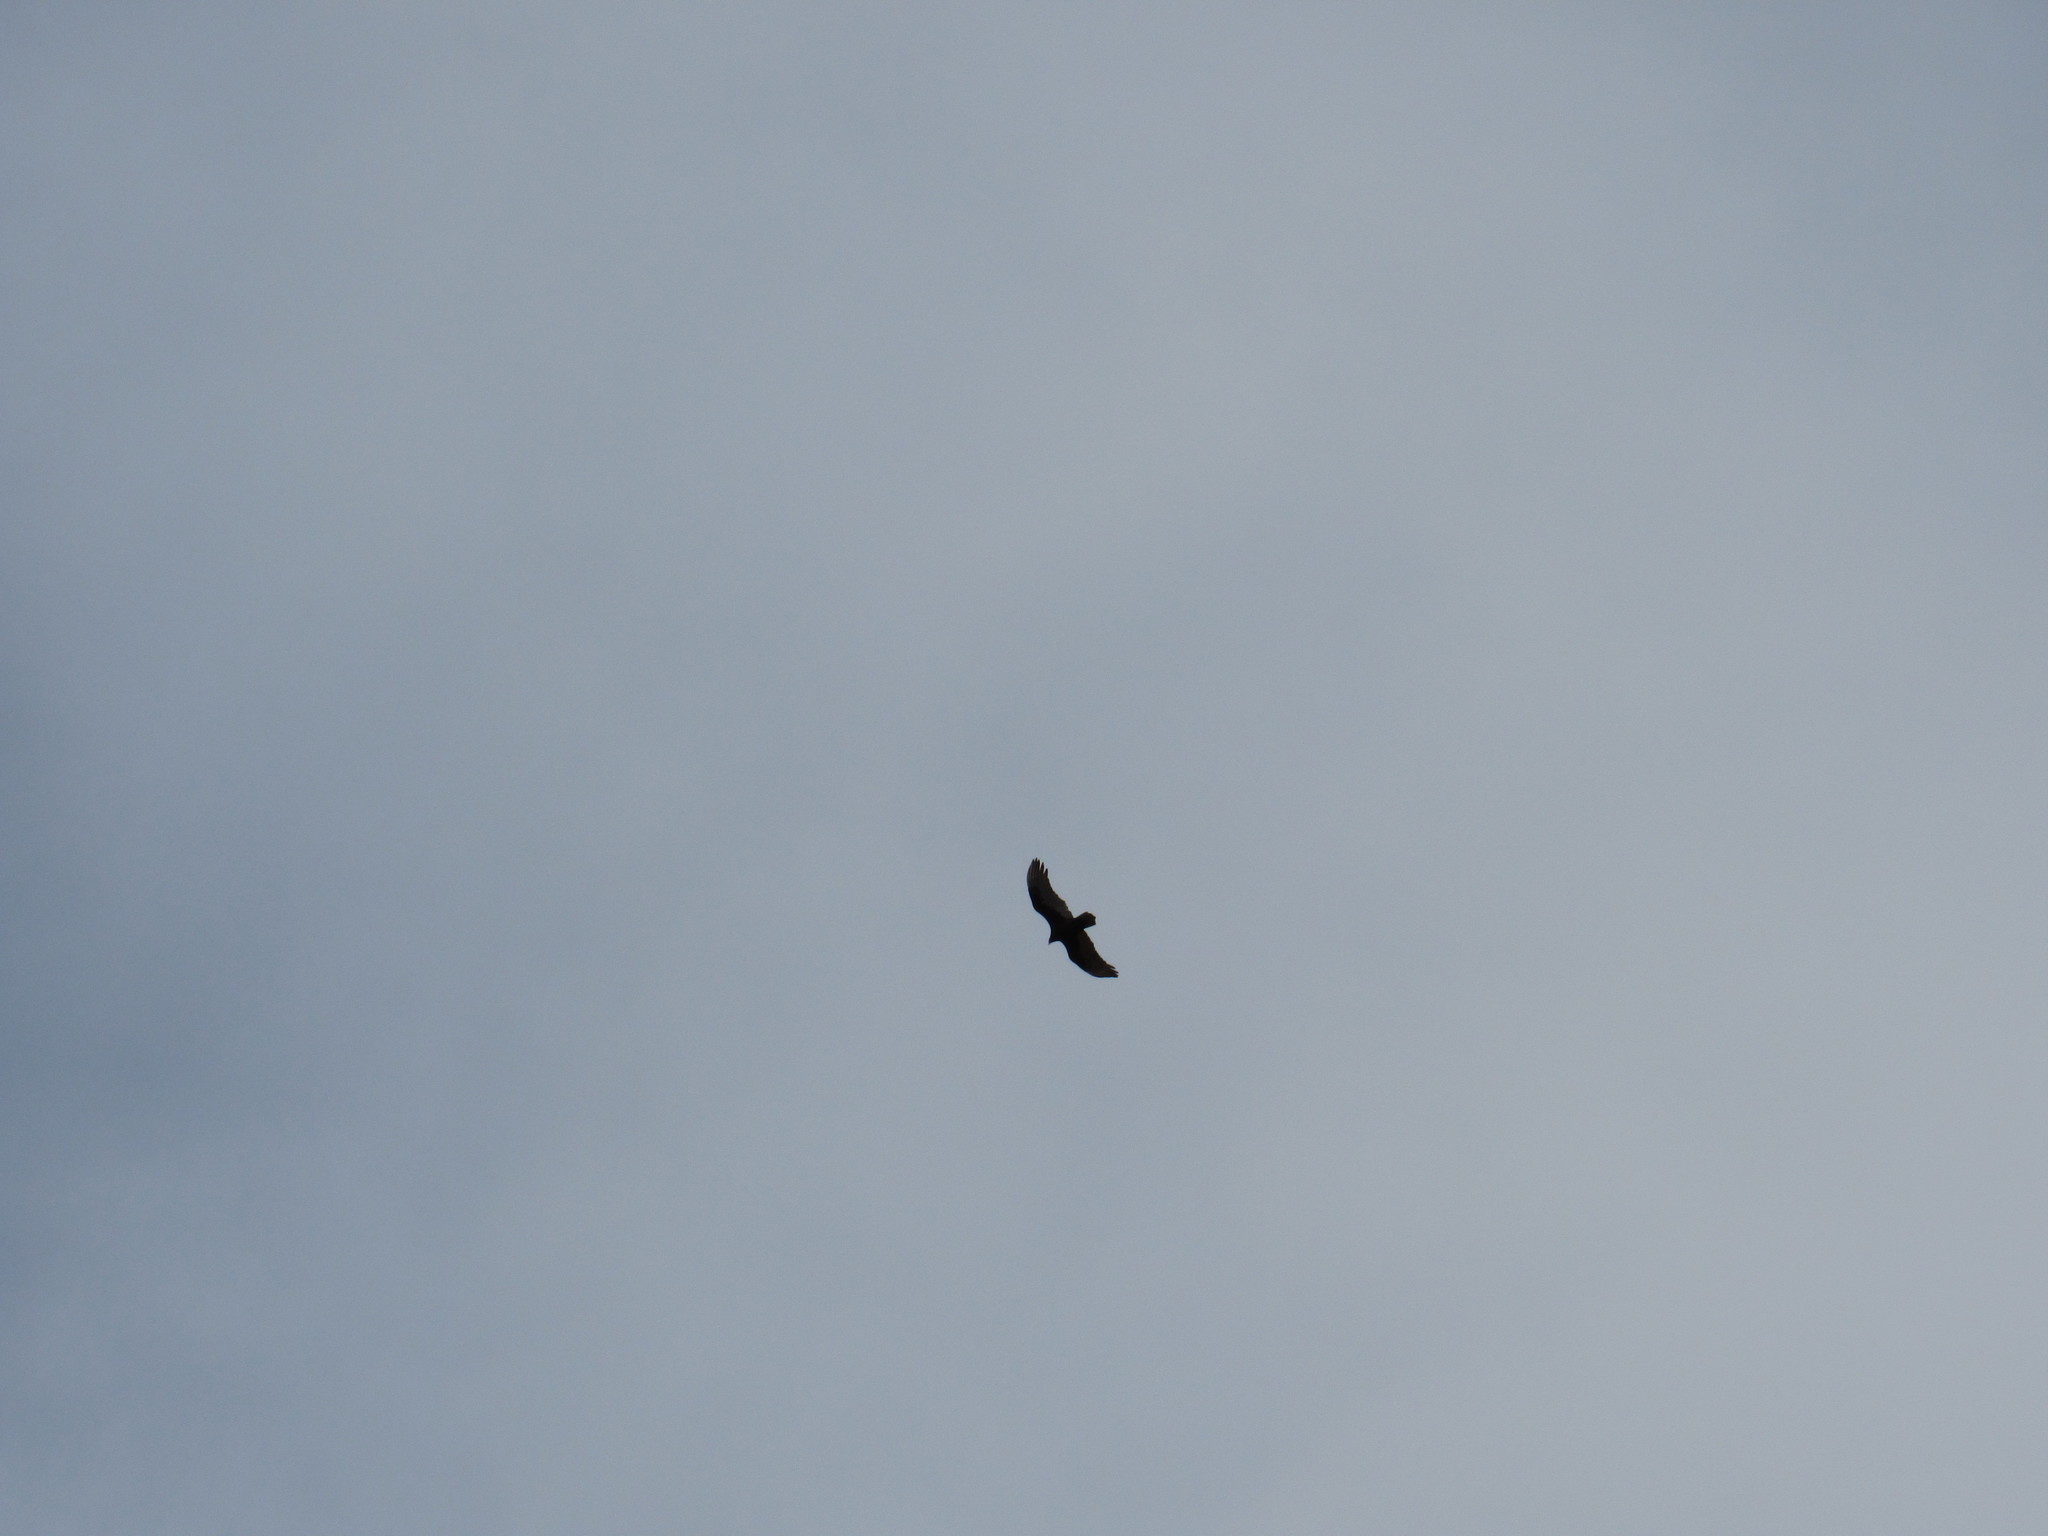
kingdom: Animalia
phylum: Chordata
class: Aves
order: Accipitriformes
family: Cathartidae
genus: Cathartes
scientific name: Cathartes aura
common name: Turkey vulture
